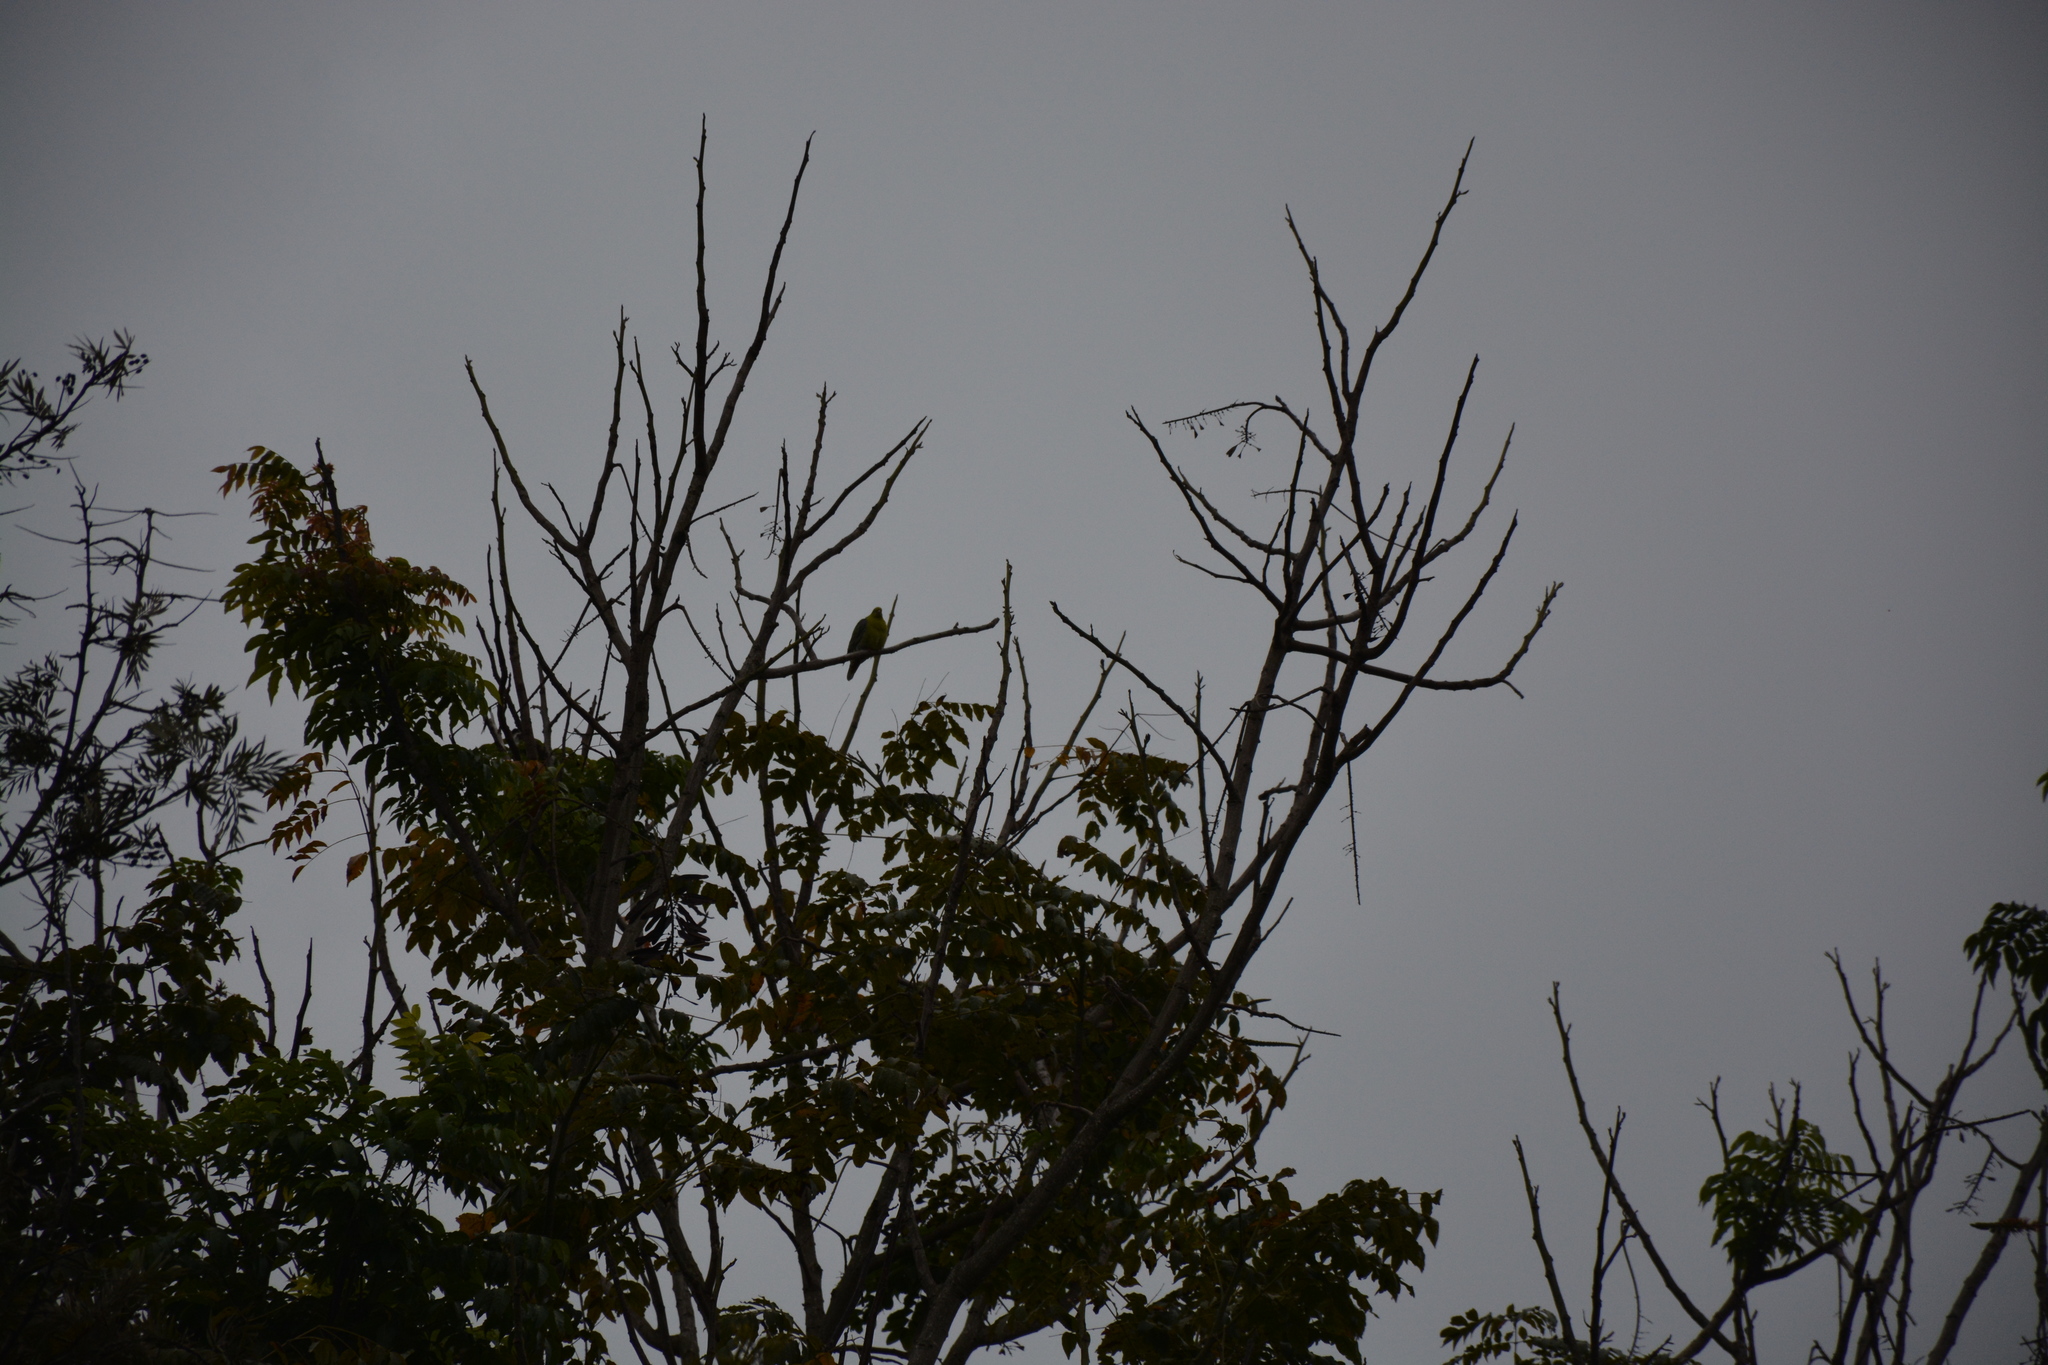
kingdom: Animalia
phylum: Chordata
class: Aves
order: Columbiformes
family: Columbidae
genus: Treron
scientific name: Treron calvus
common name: African green pigeon
